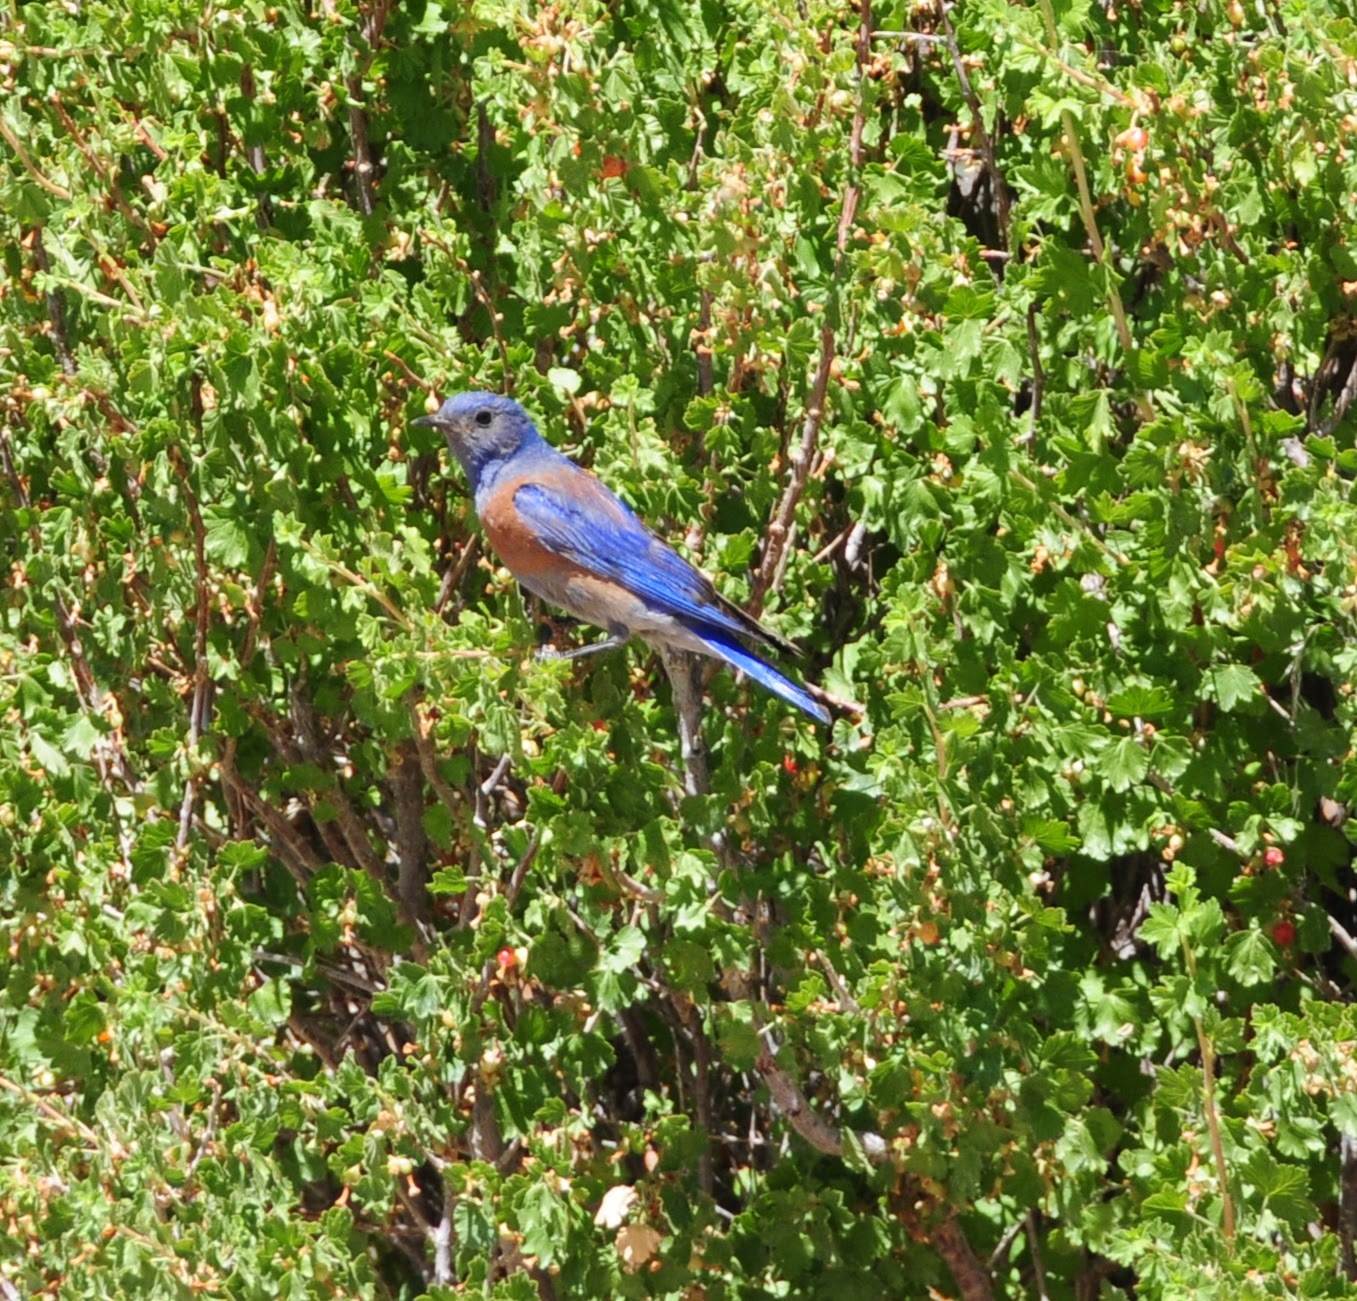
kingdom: Animalia
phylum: Chordata
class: Aves
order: Passeriformes
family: Turdidae
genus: Sialia
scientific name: Sialia mexicana
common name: Western bluebird
